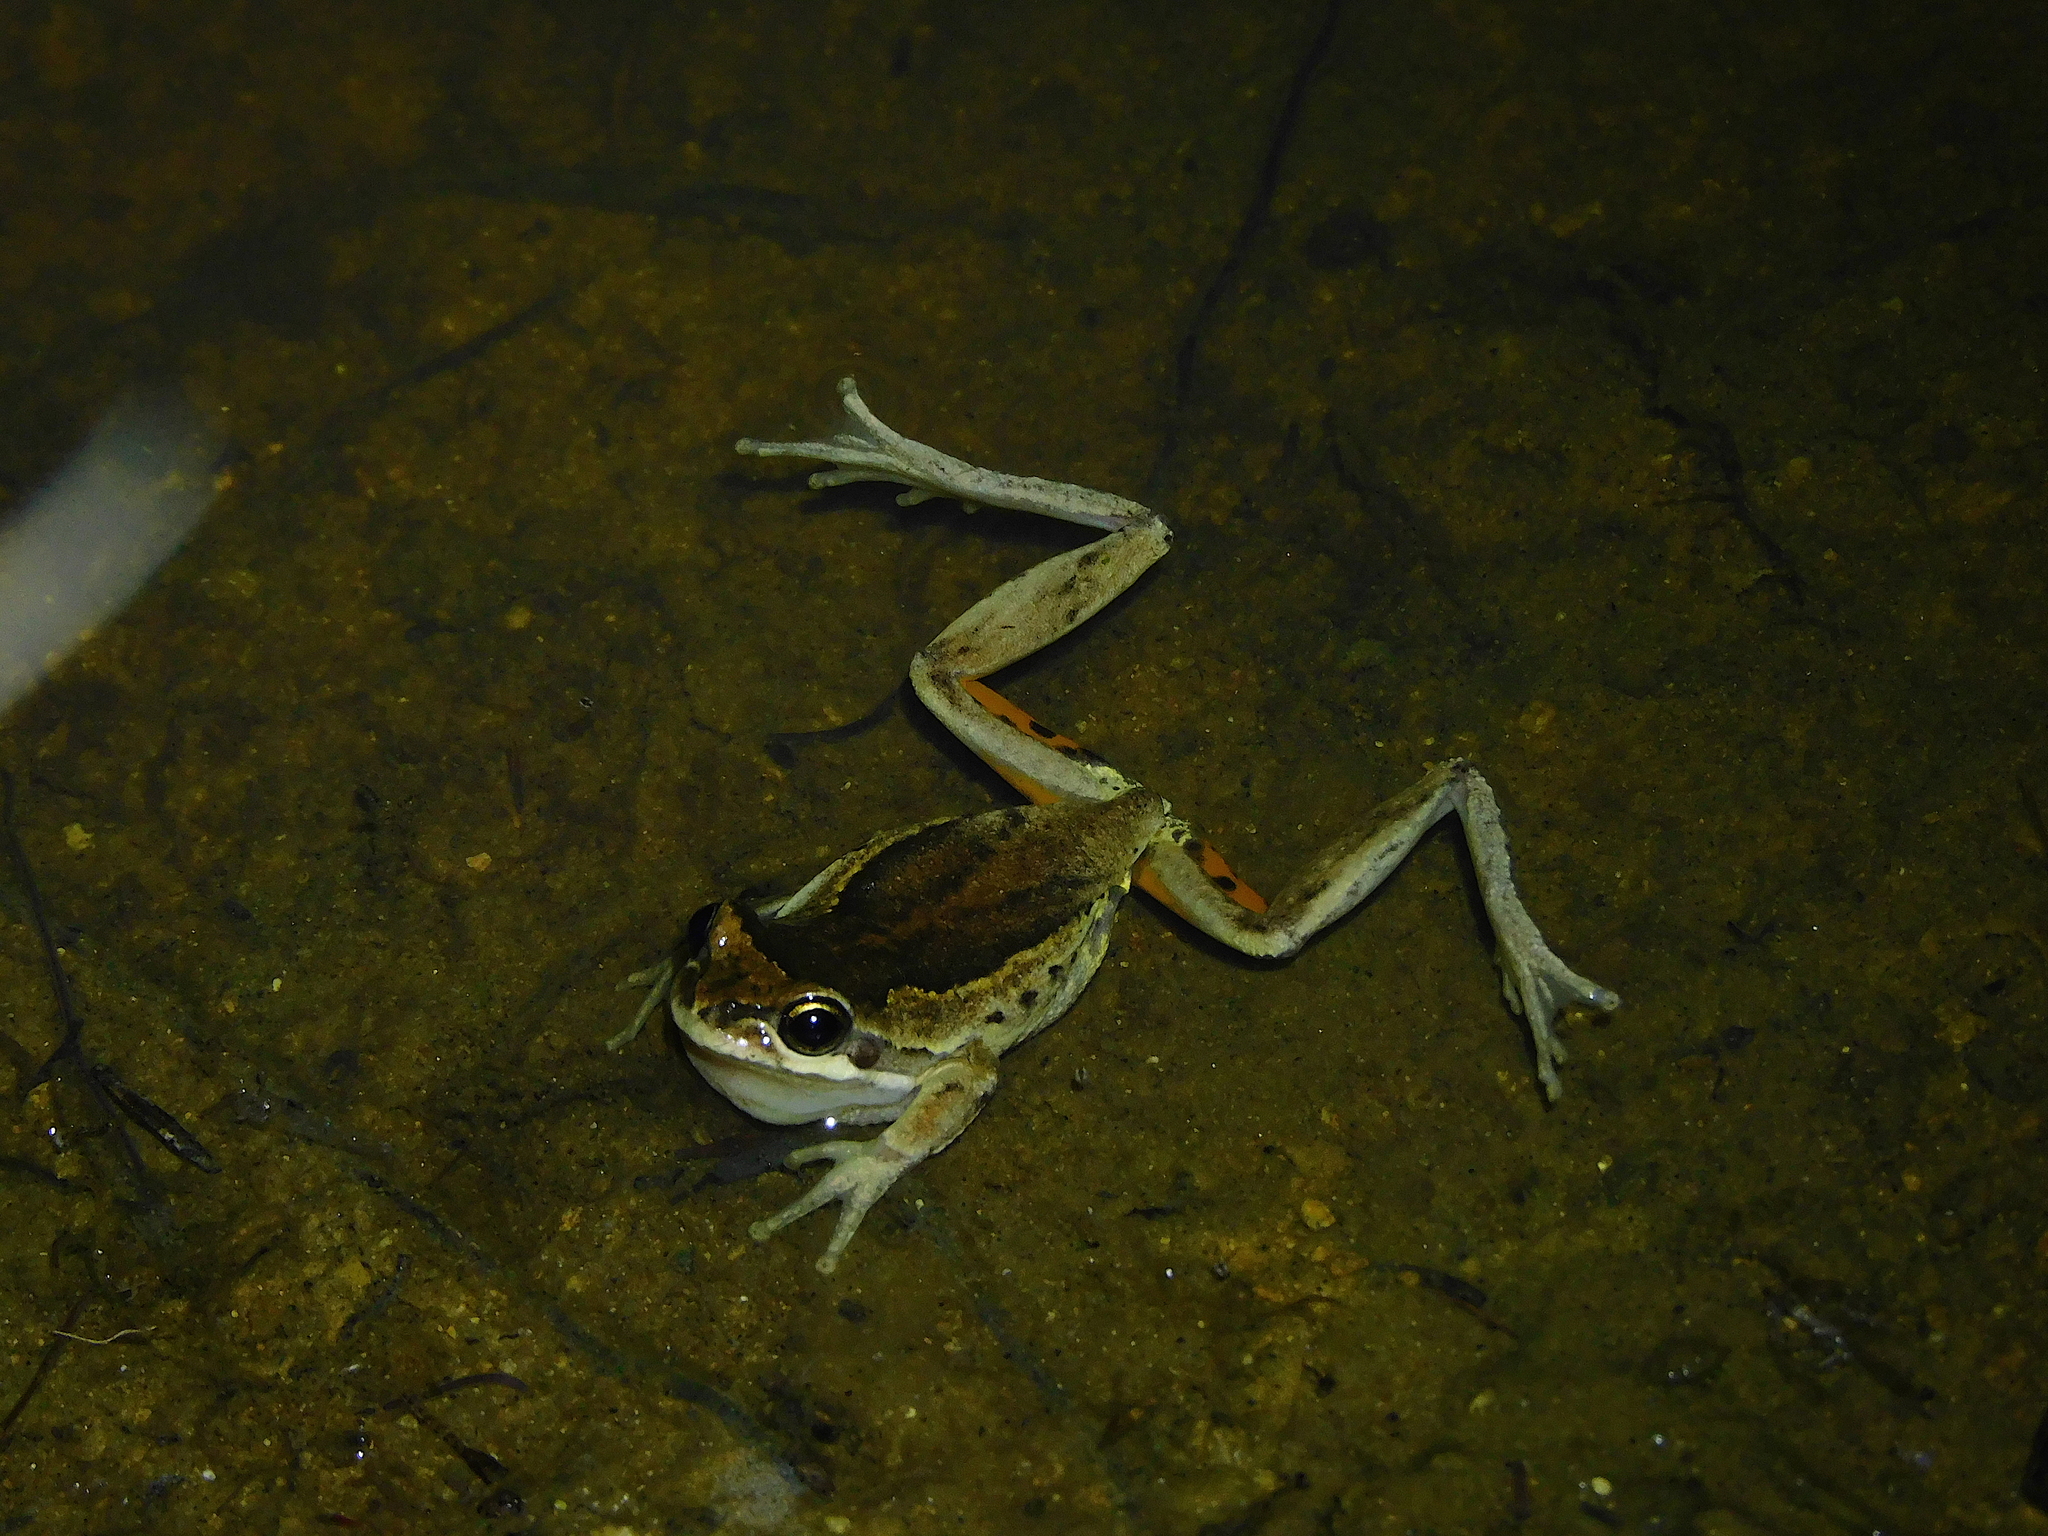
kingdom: Animalia
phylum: Chordata
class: Amphibia
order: Anura
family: Pelodryadidae
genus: Litoria
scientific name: Litoria ewingii
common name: Southern brown tree frog
